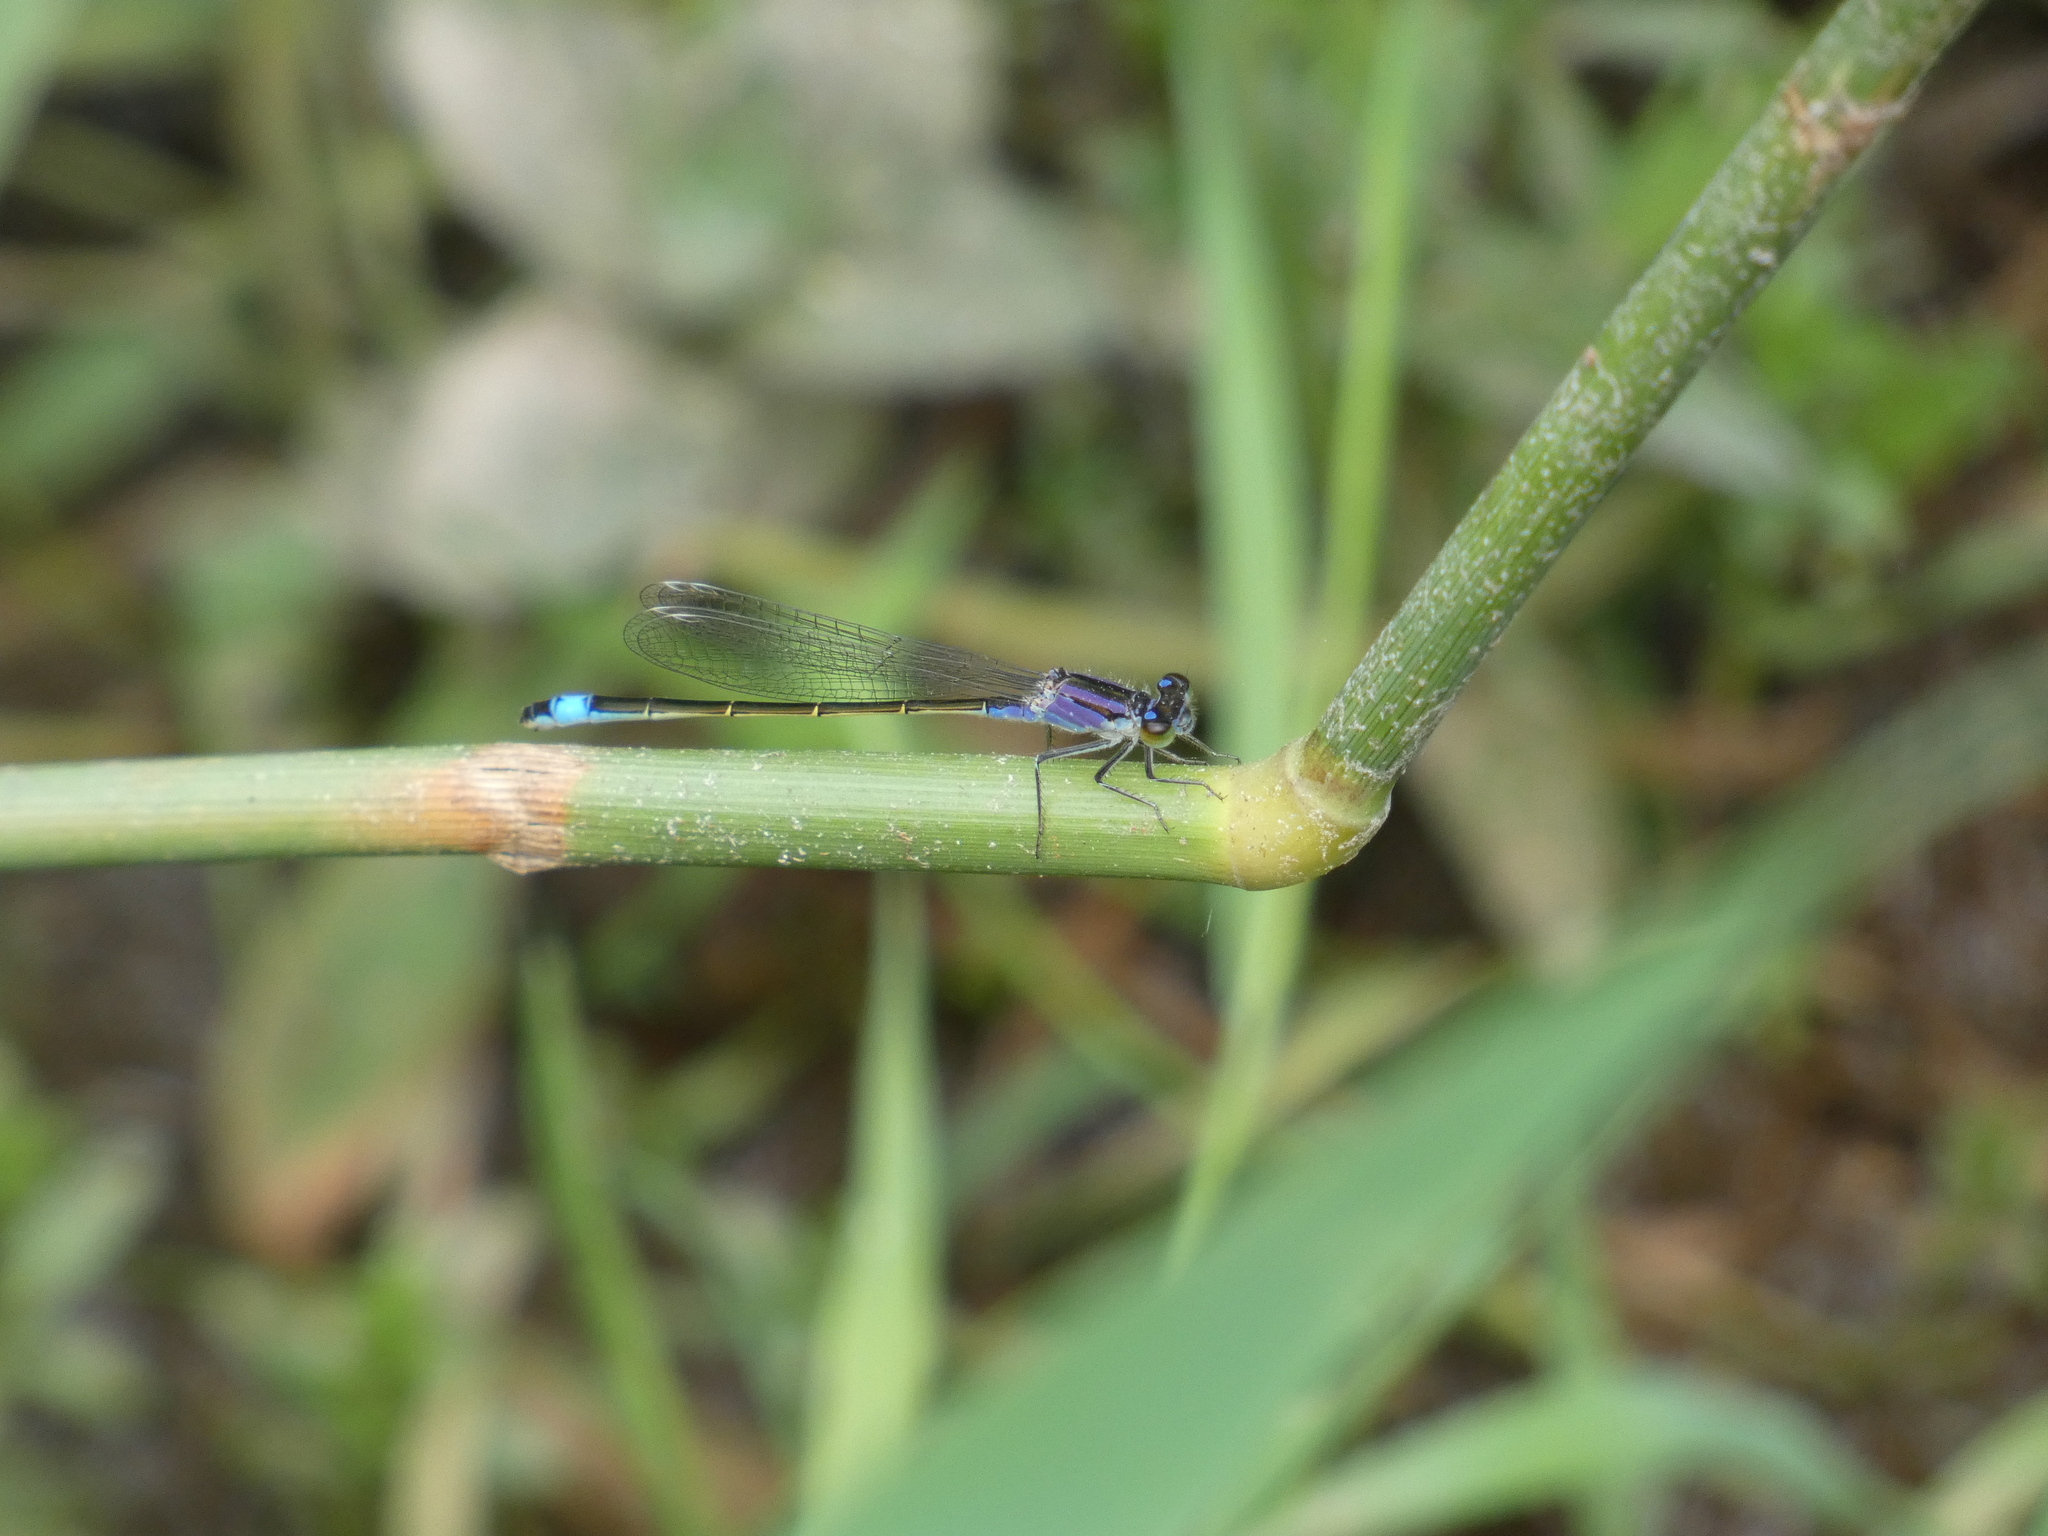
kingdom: Animalia
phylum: Arthropoda
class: Insecta
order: Odonata
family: Coenagrionidae
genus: Ischnura
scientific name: Ischnura elegans
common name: Blue-tailed damselfly
